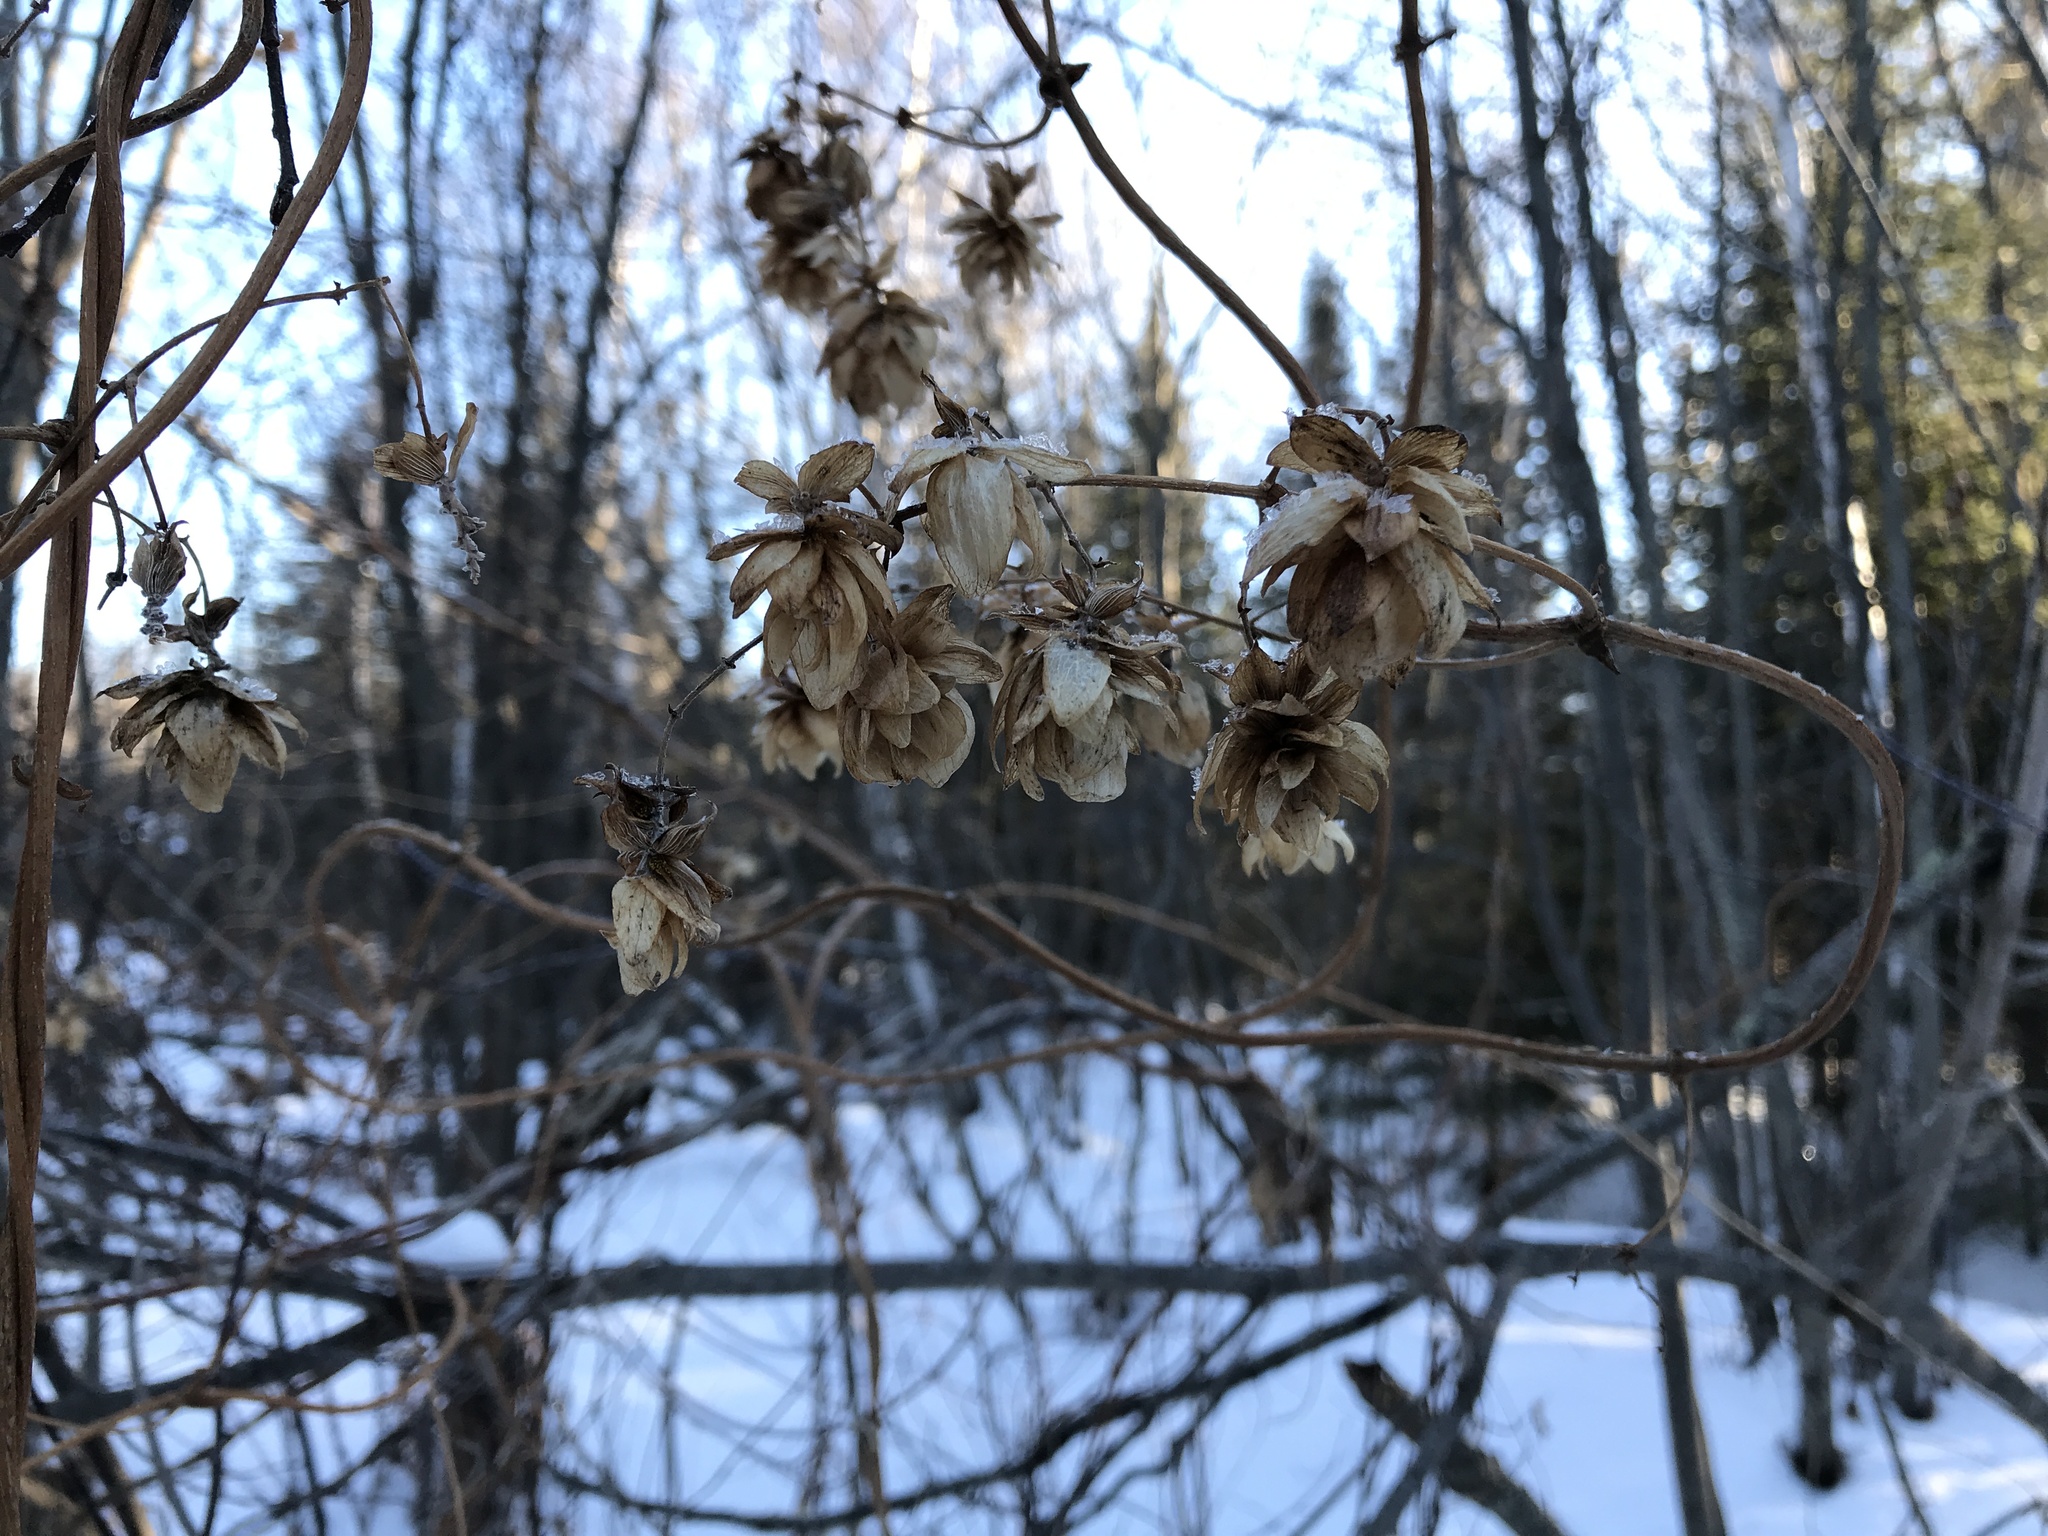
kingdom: Plantae
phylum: Tracheophyta
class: Magnoliopsida
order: Rosales
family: Cannabaceae
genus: Humulus
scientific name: Humulus lupulus
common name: Hop
